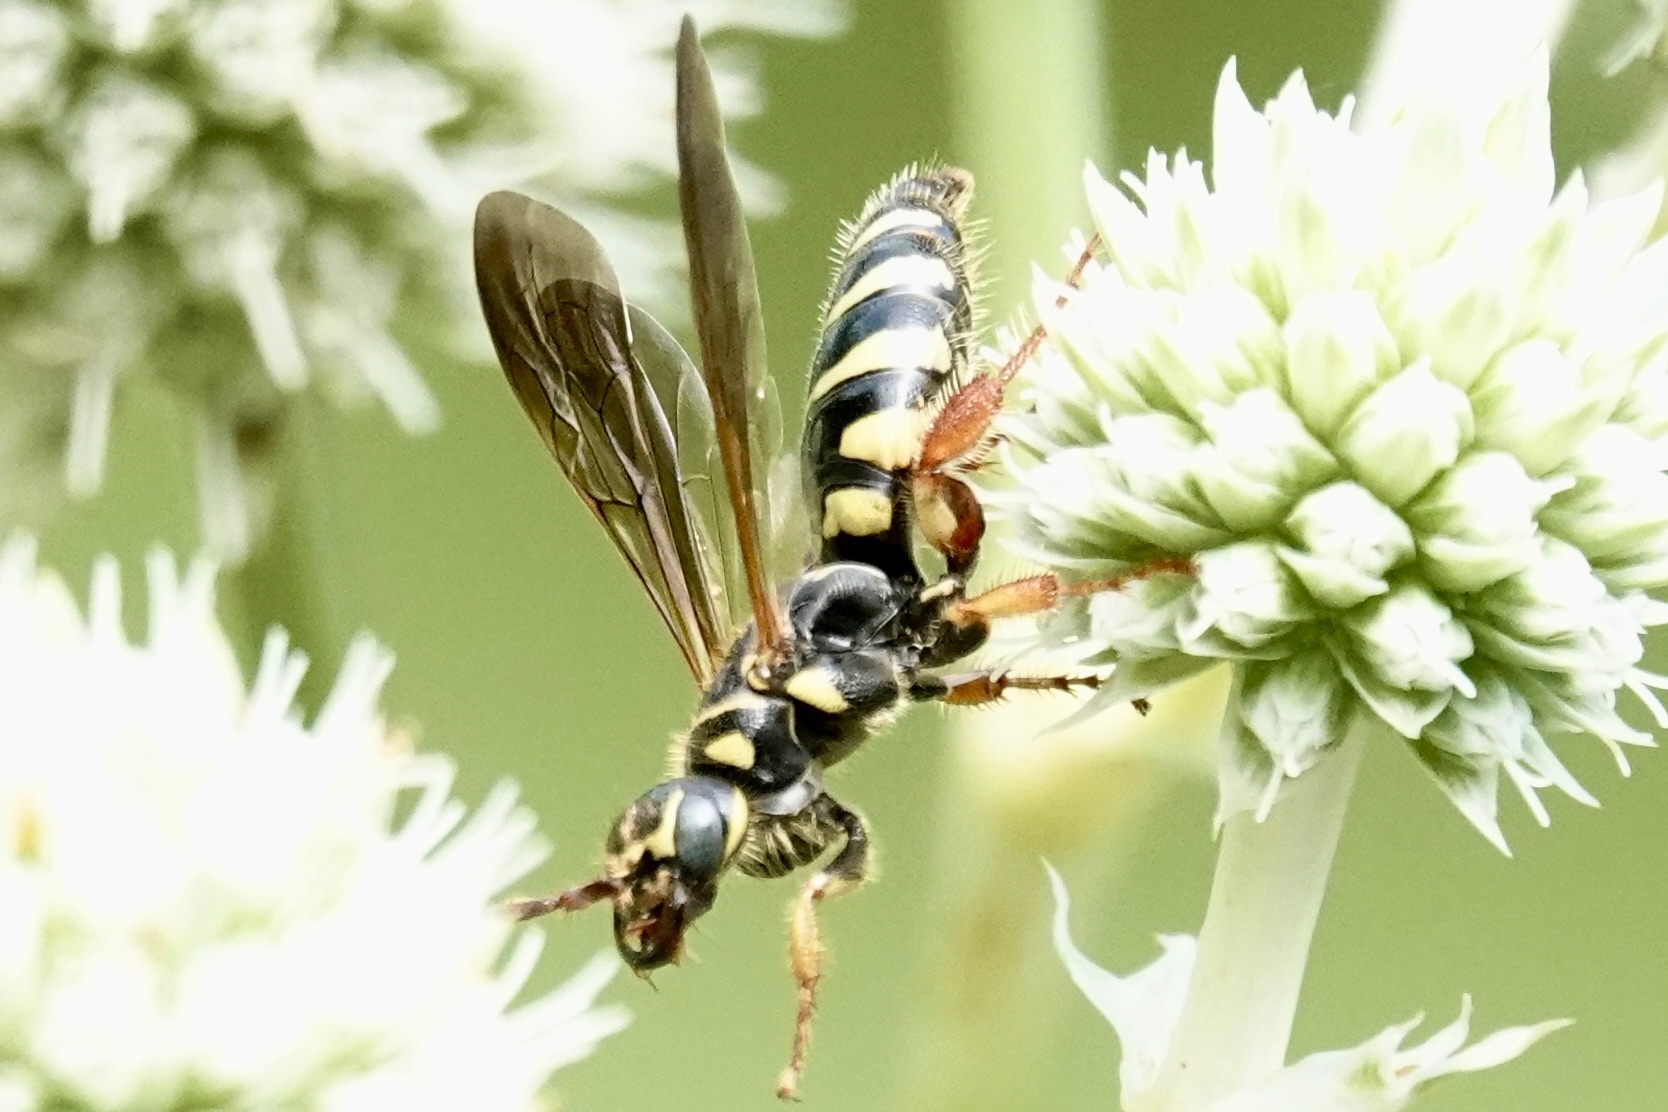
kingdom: Animalia
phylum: Arthropoda
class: Insecta
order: Hymenoptera
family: Tiphiidae
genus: Myzinum
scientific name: Myzinum quinquecinctum
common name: Five-banded thynnid wasp
